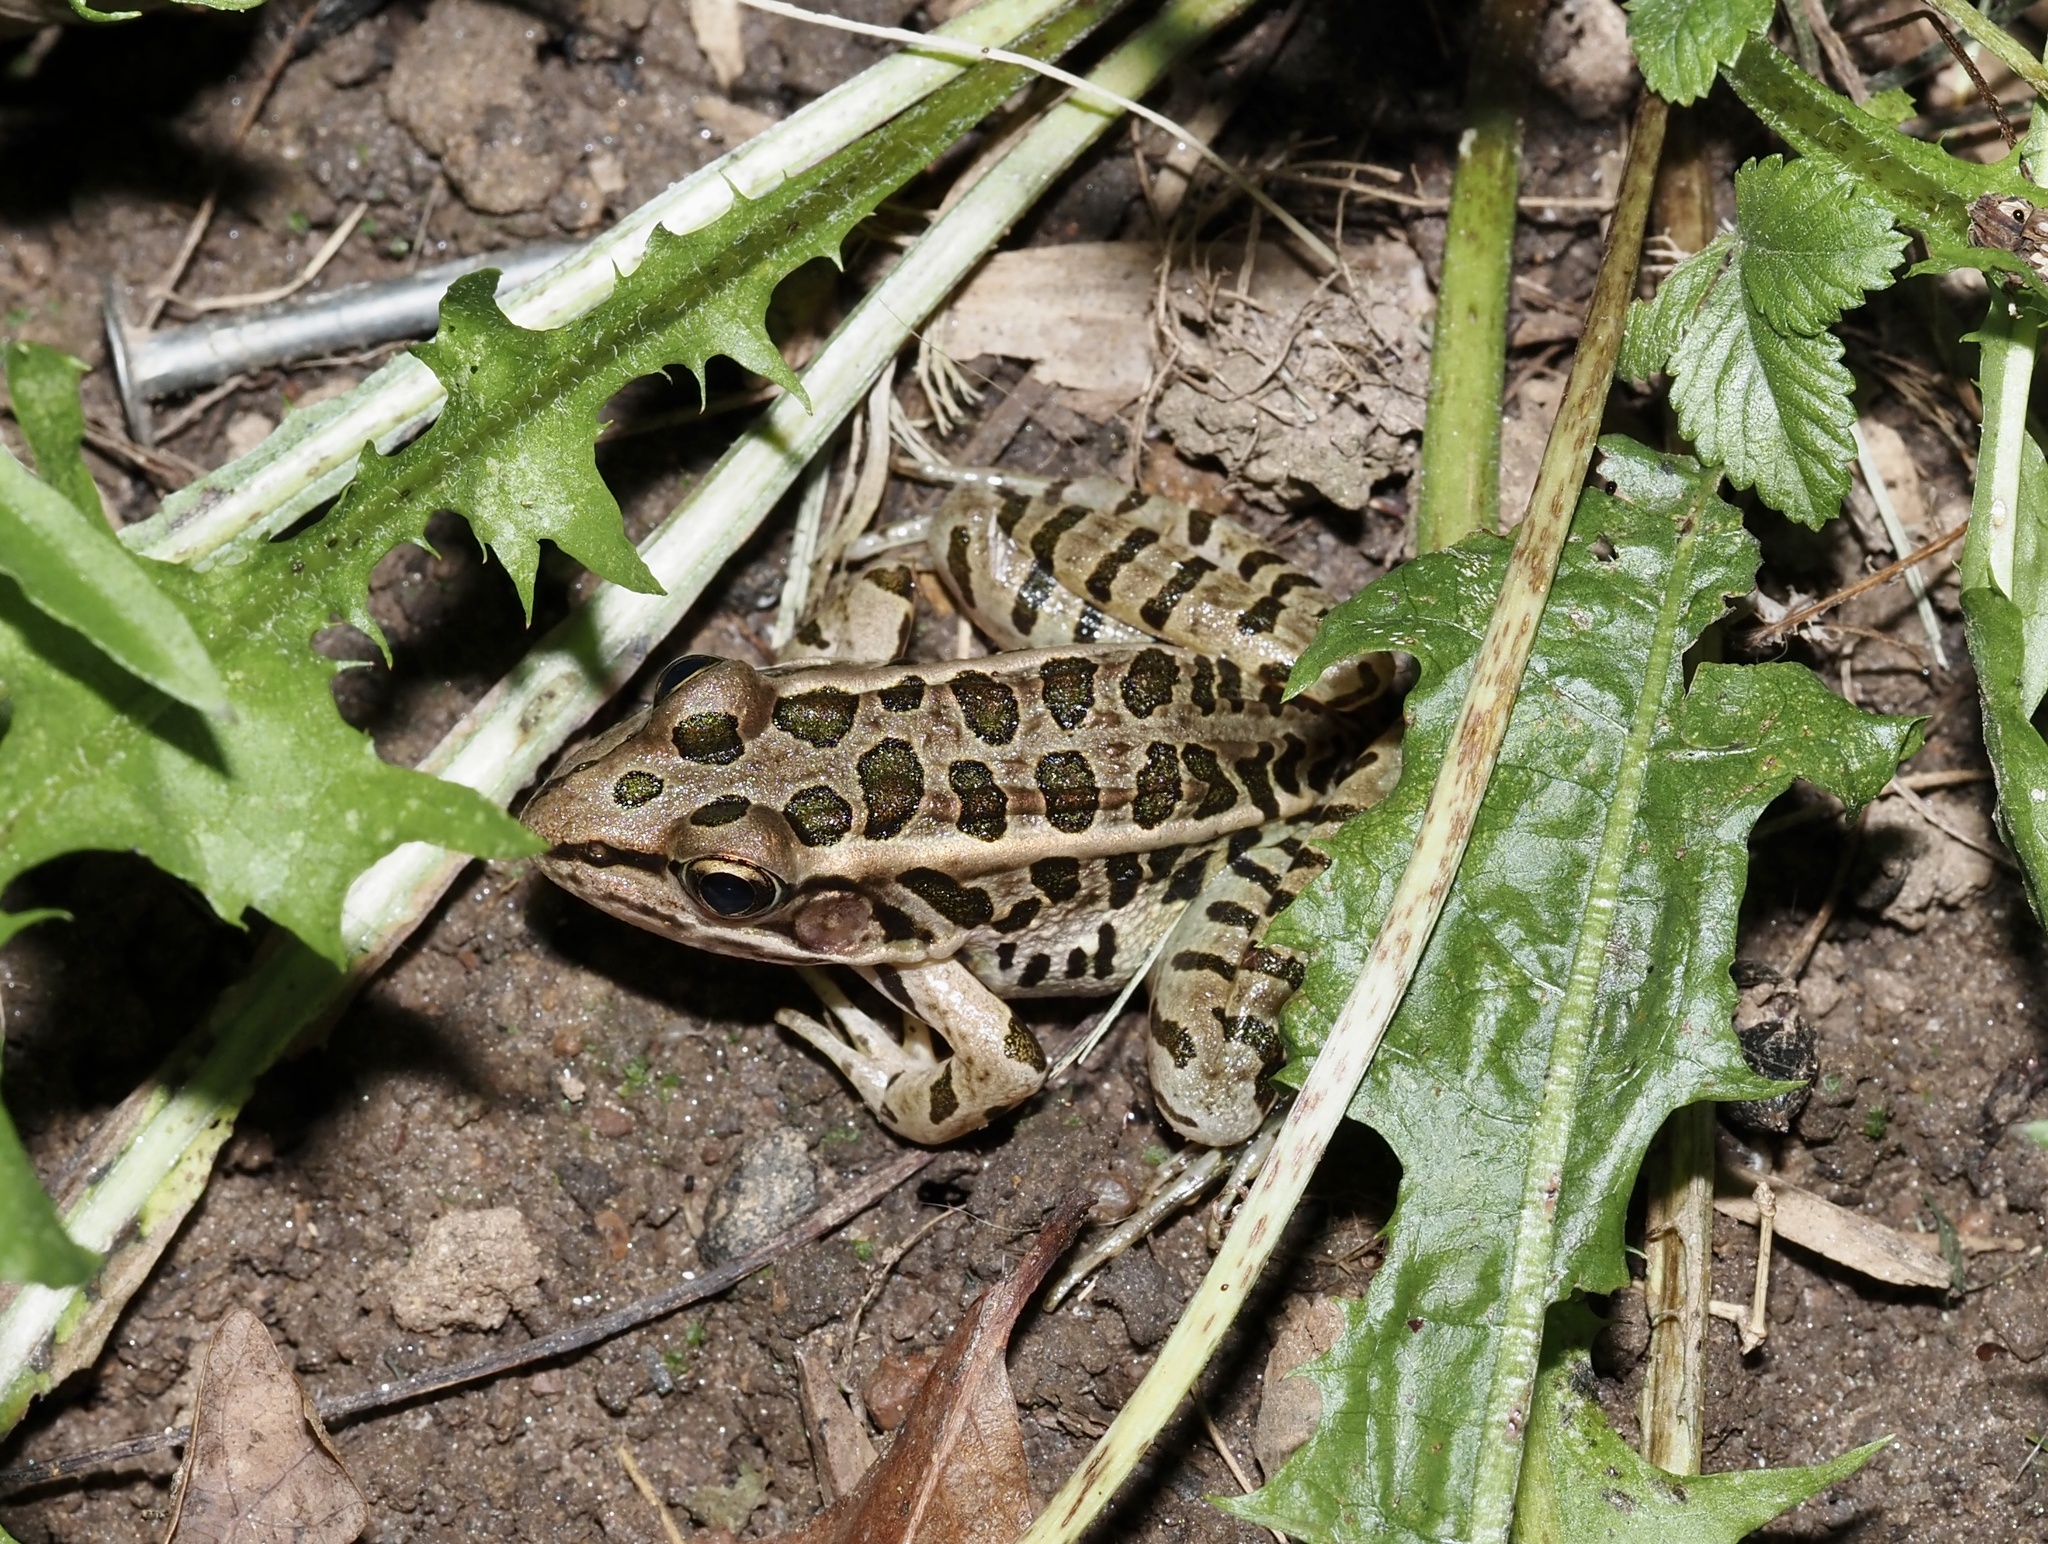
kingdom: Animalia
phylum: Chordata
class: Amphibia
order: Anura
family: Ranidae
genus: Lithobates
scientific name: Lithobates palustris
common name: Pickerel frog
